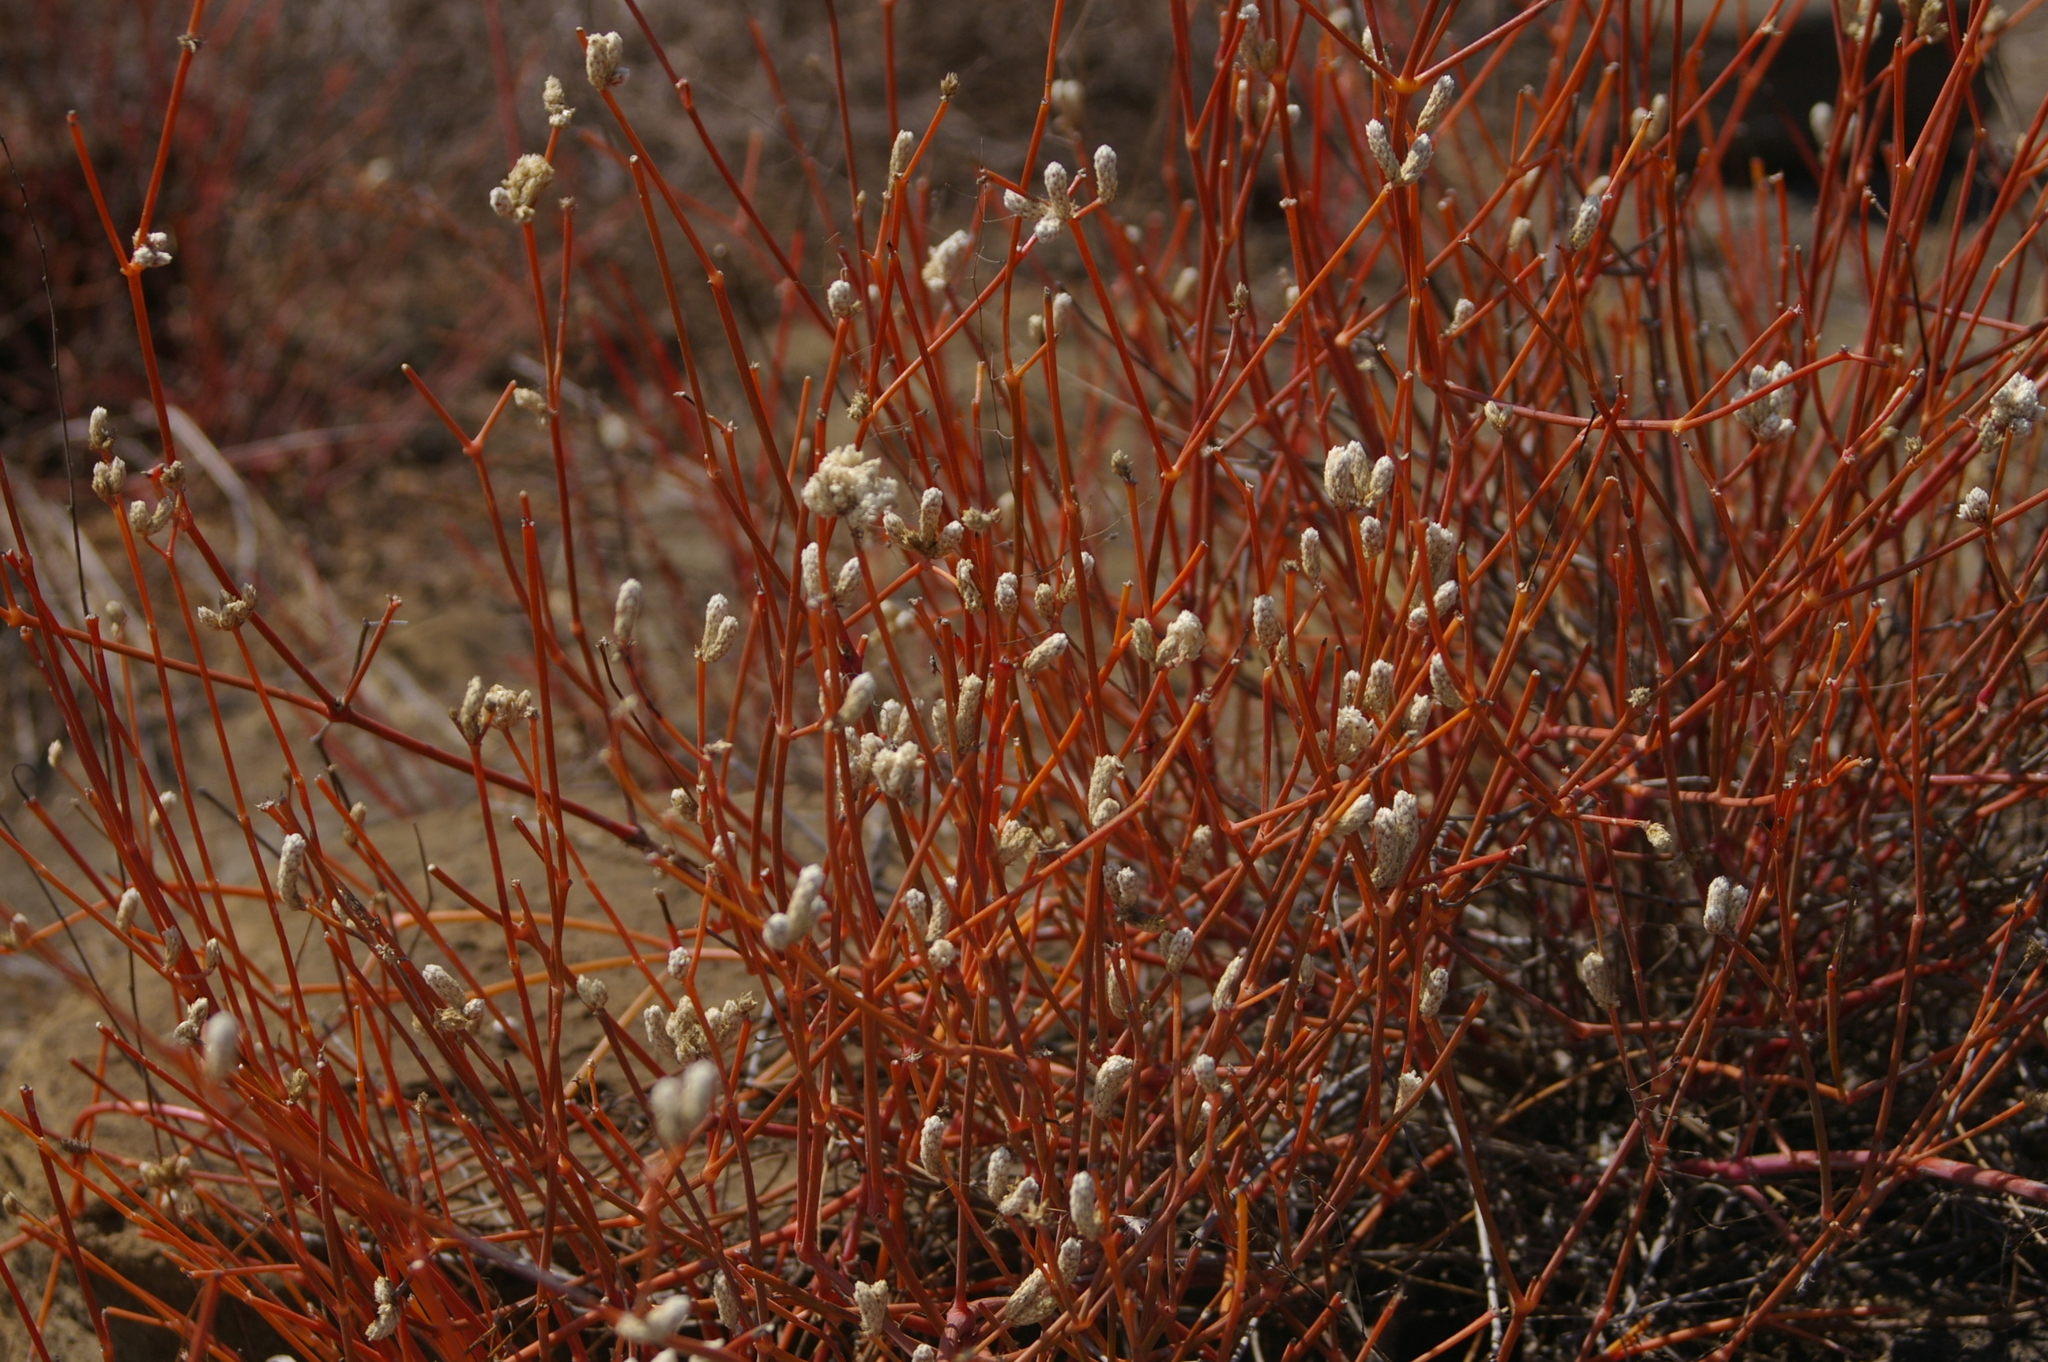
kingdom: Plantae
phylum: Tracheophyta
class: Magnoliopsida
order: Caryophyllales
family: Amaranthaceae
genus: Alternanthera
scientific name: Alternanthera filifolia
